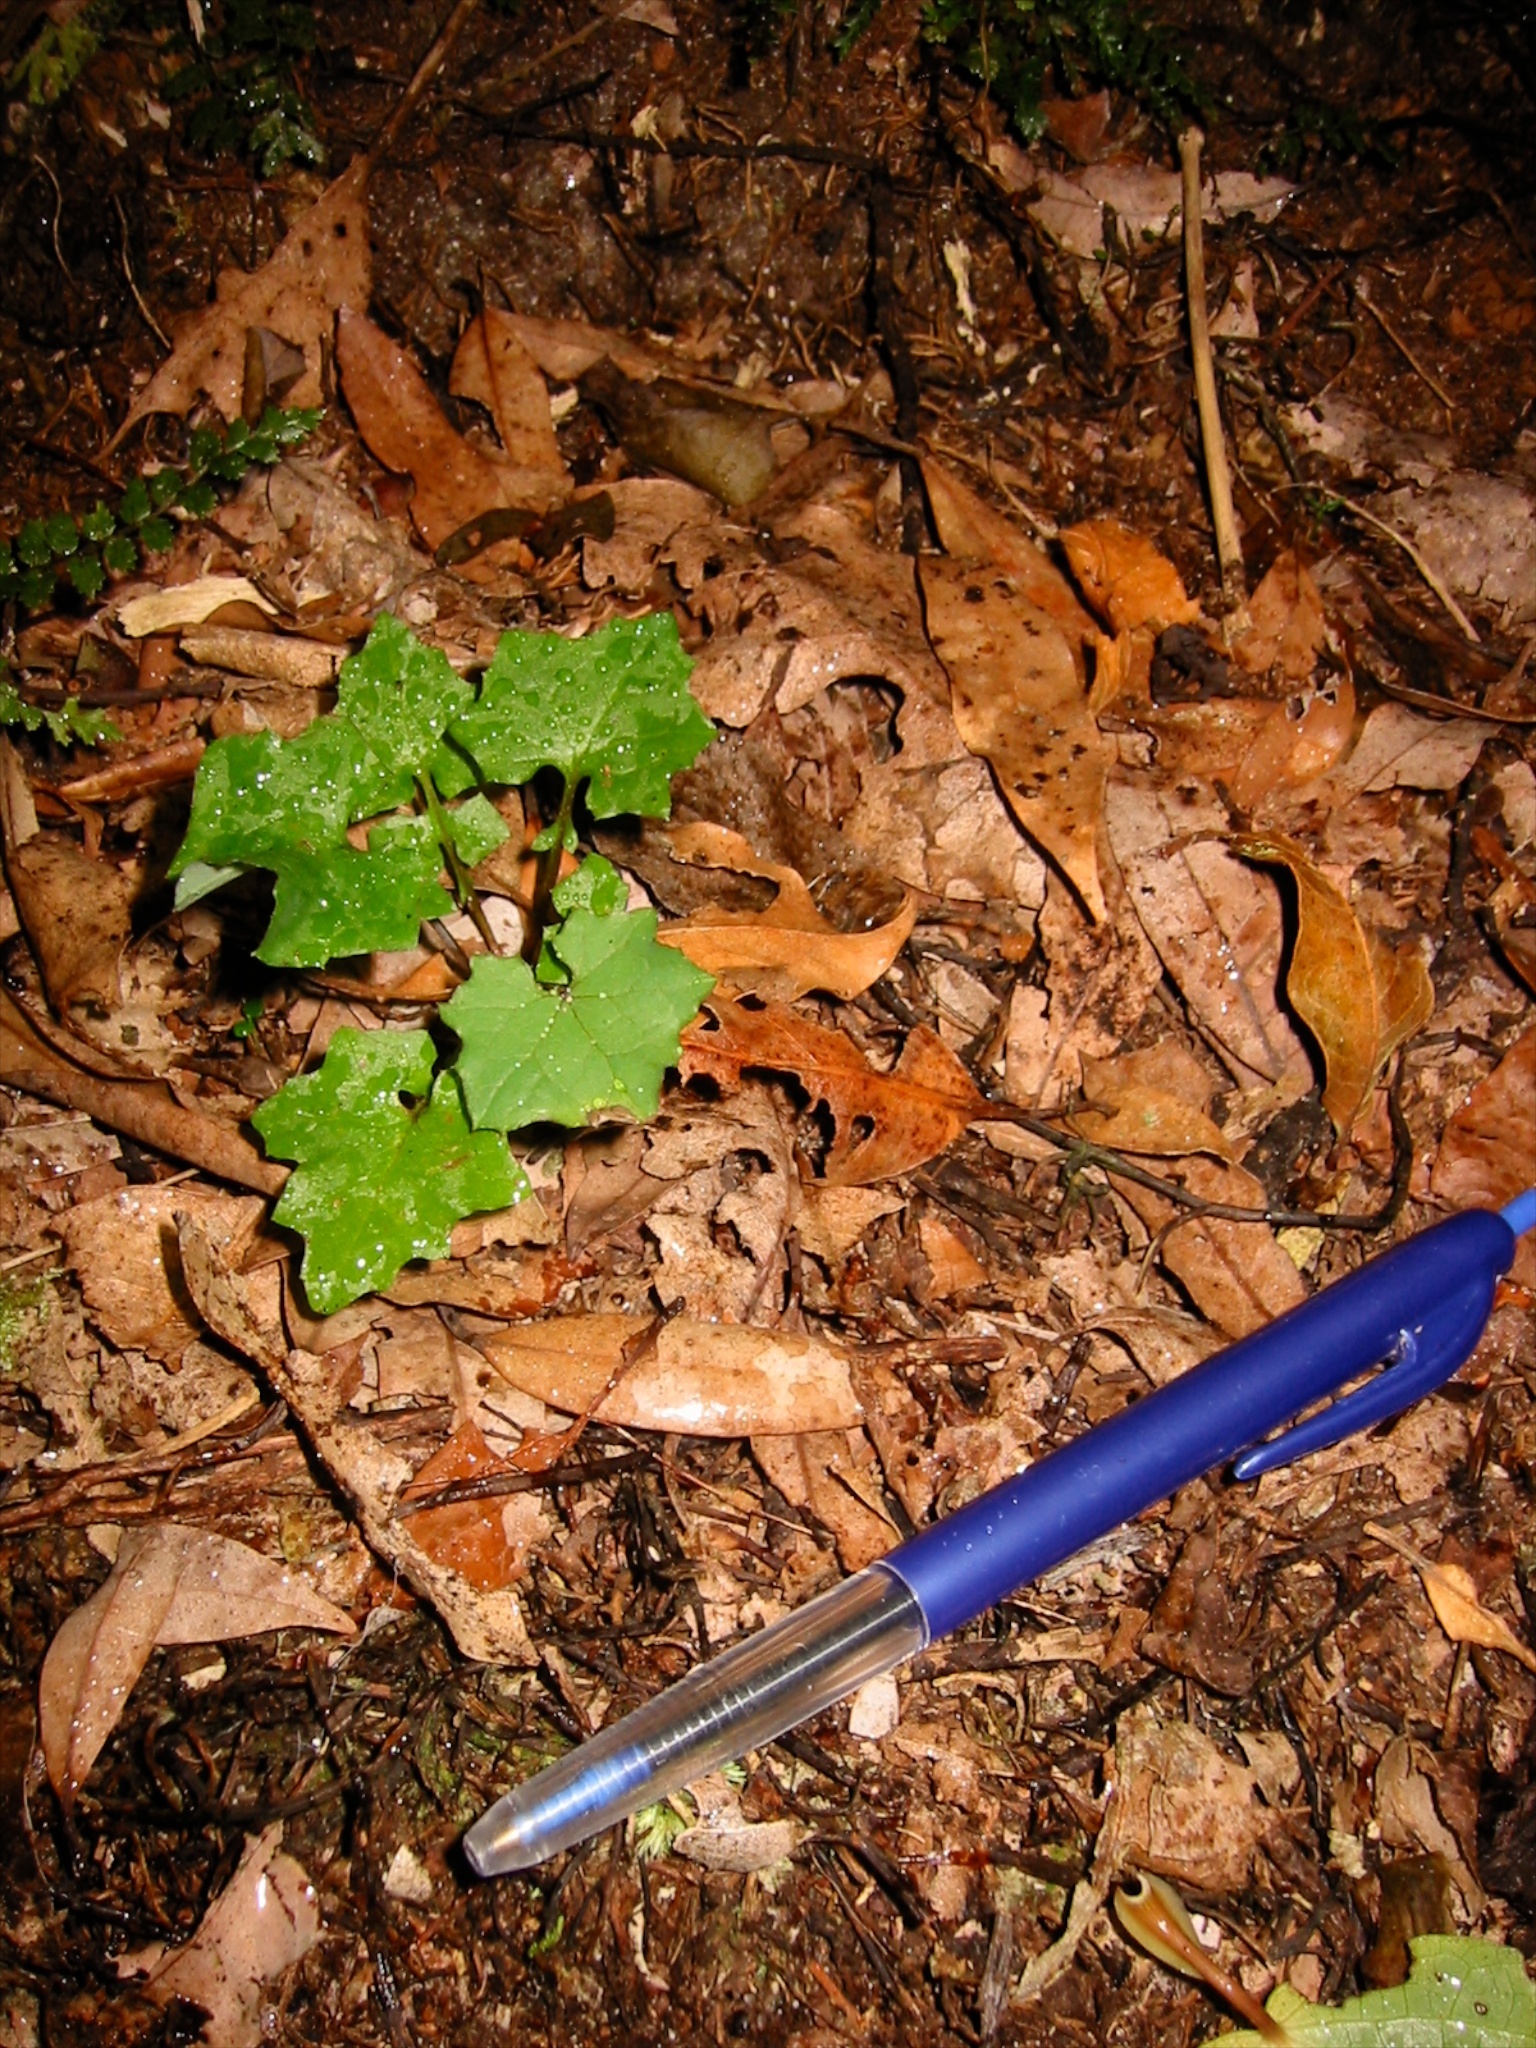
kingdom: Plantae
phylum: Tracheophyta
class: Magnoliopsida
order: Asterales
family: Asteraceae
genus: Mycelis
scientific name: Mycelis muralis
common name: Wall lettuce
